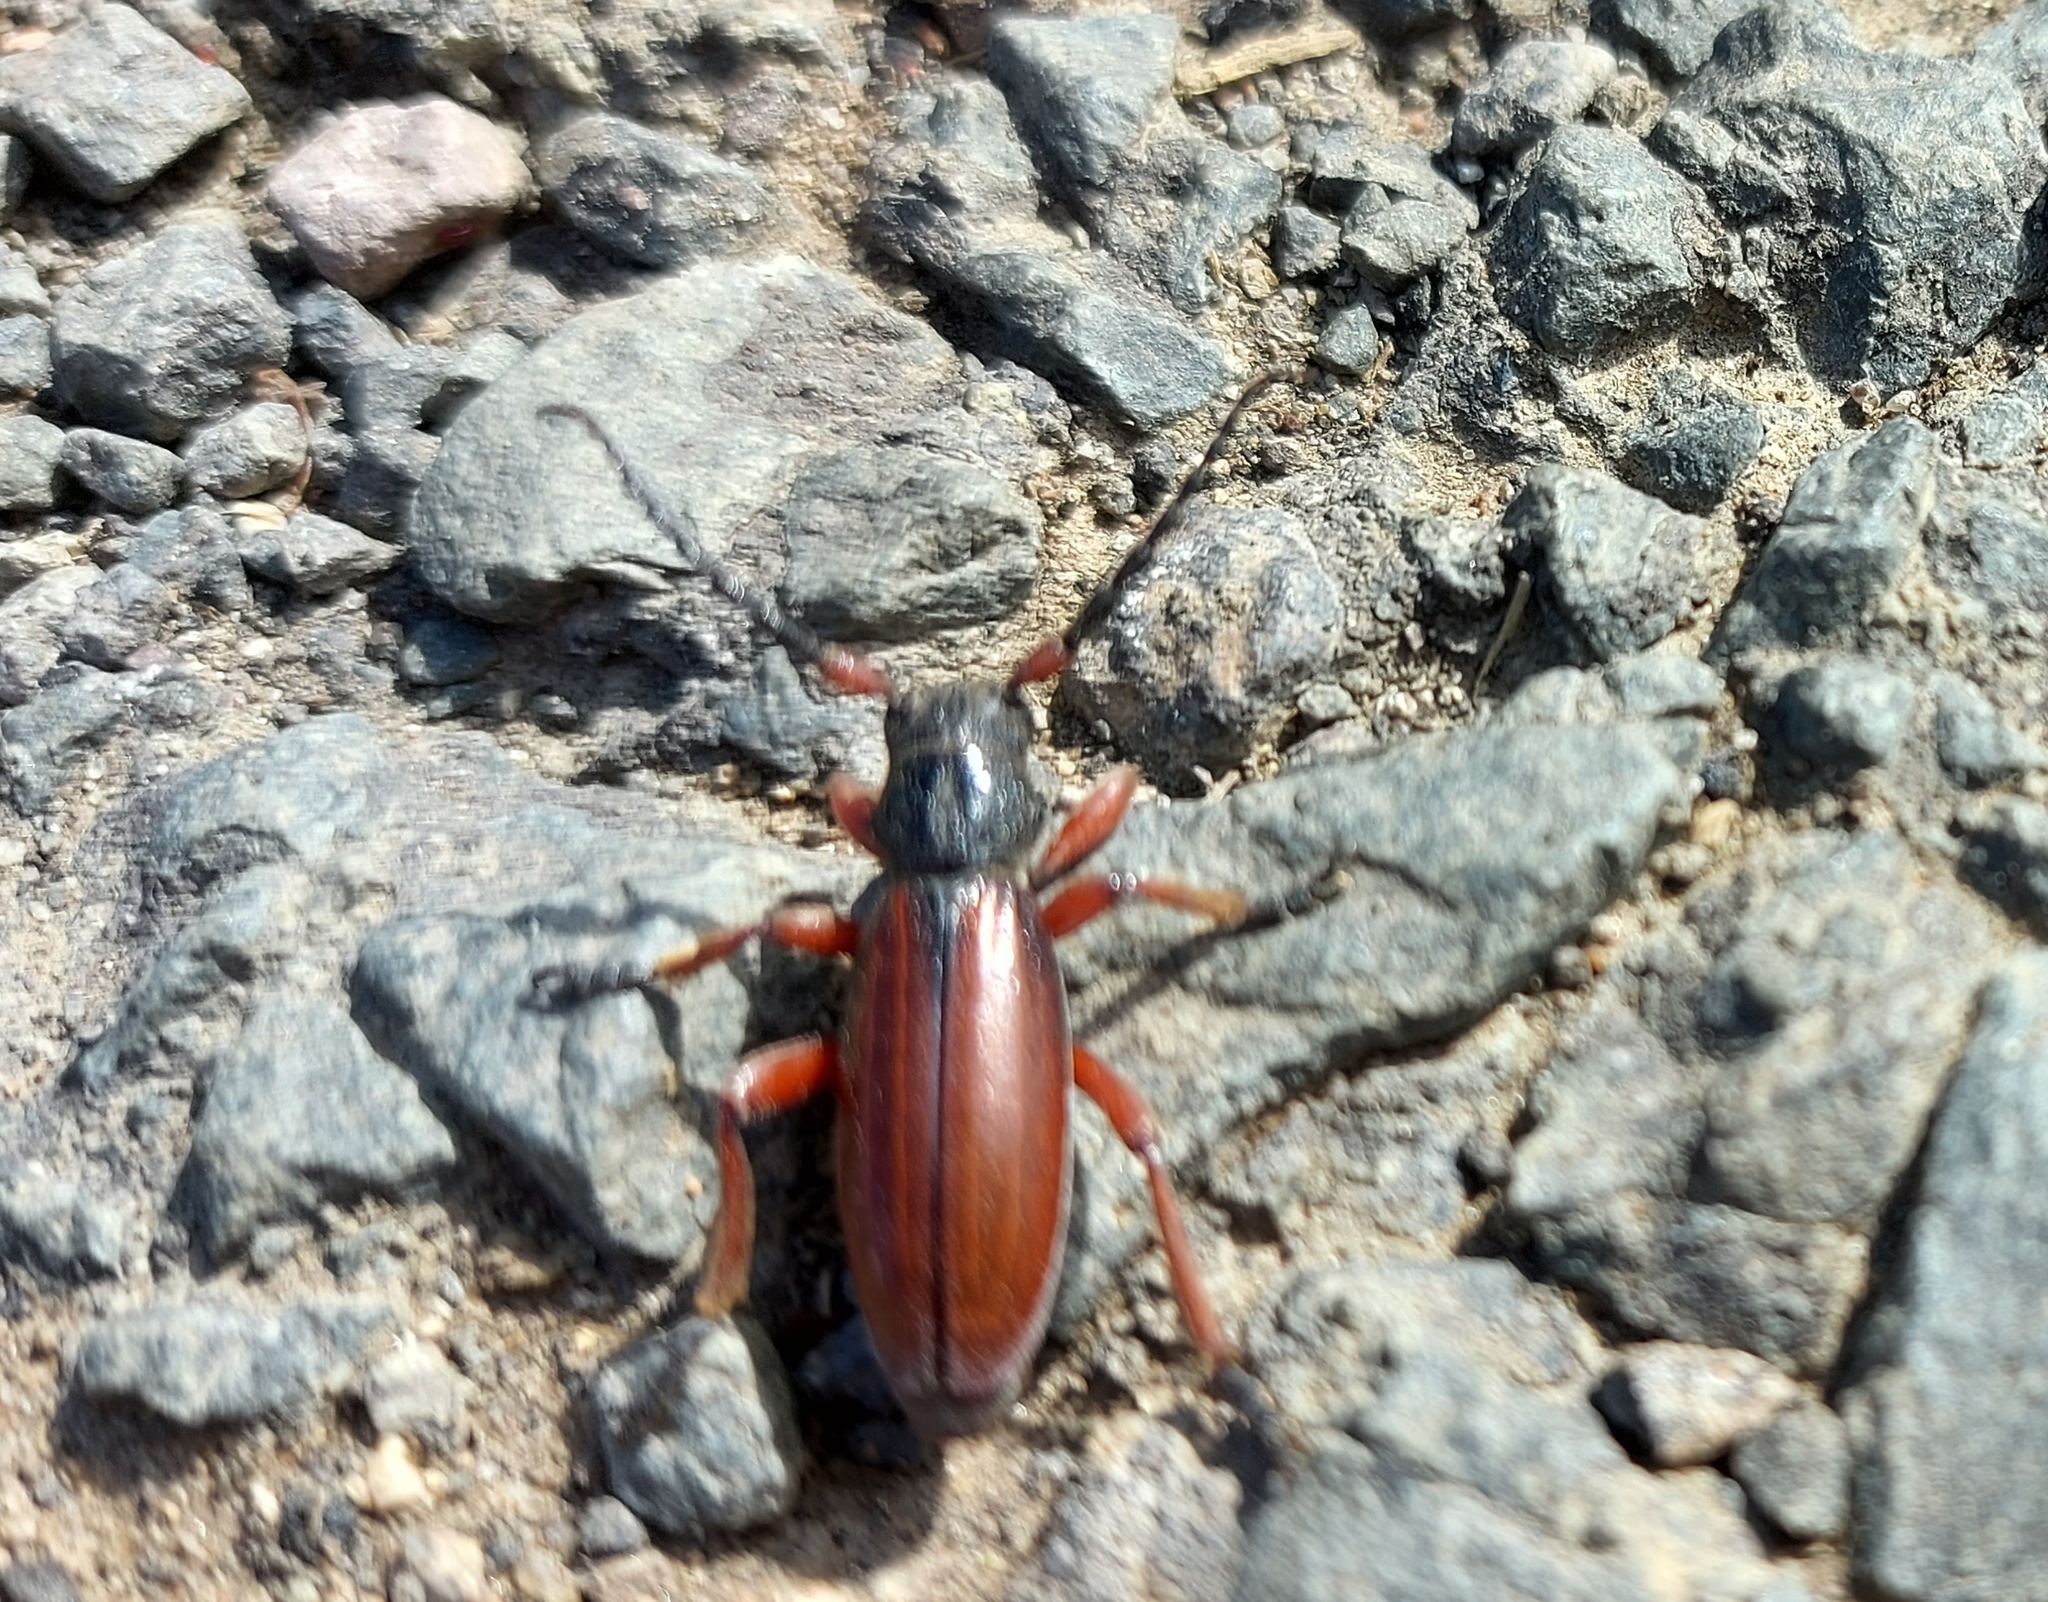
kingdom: Animalia
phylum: Arthropoda
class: Insecta
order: Coleoptera
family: Cerambycidae
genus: Dorcadion
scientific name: Dorcadion fulvum
